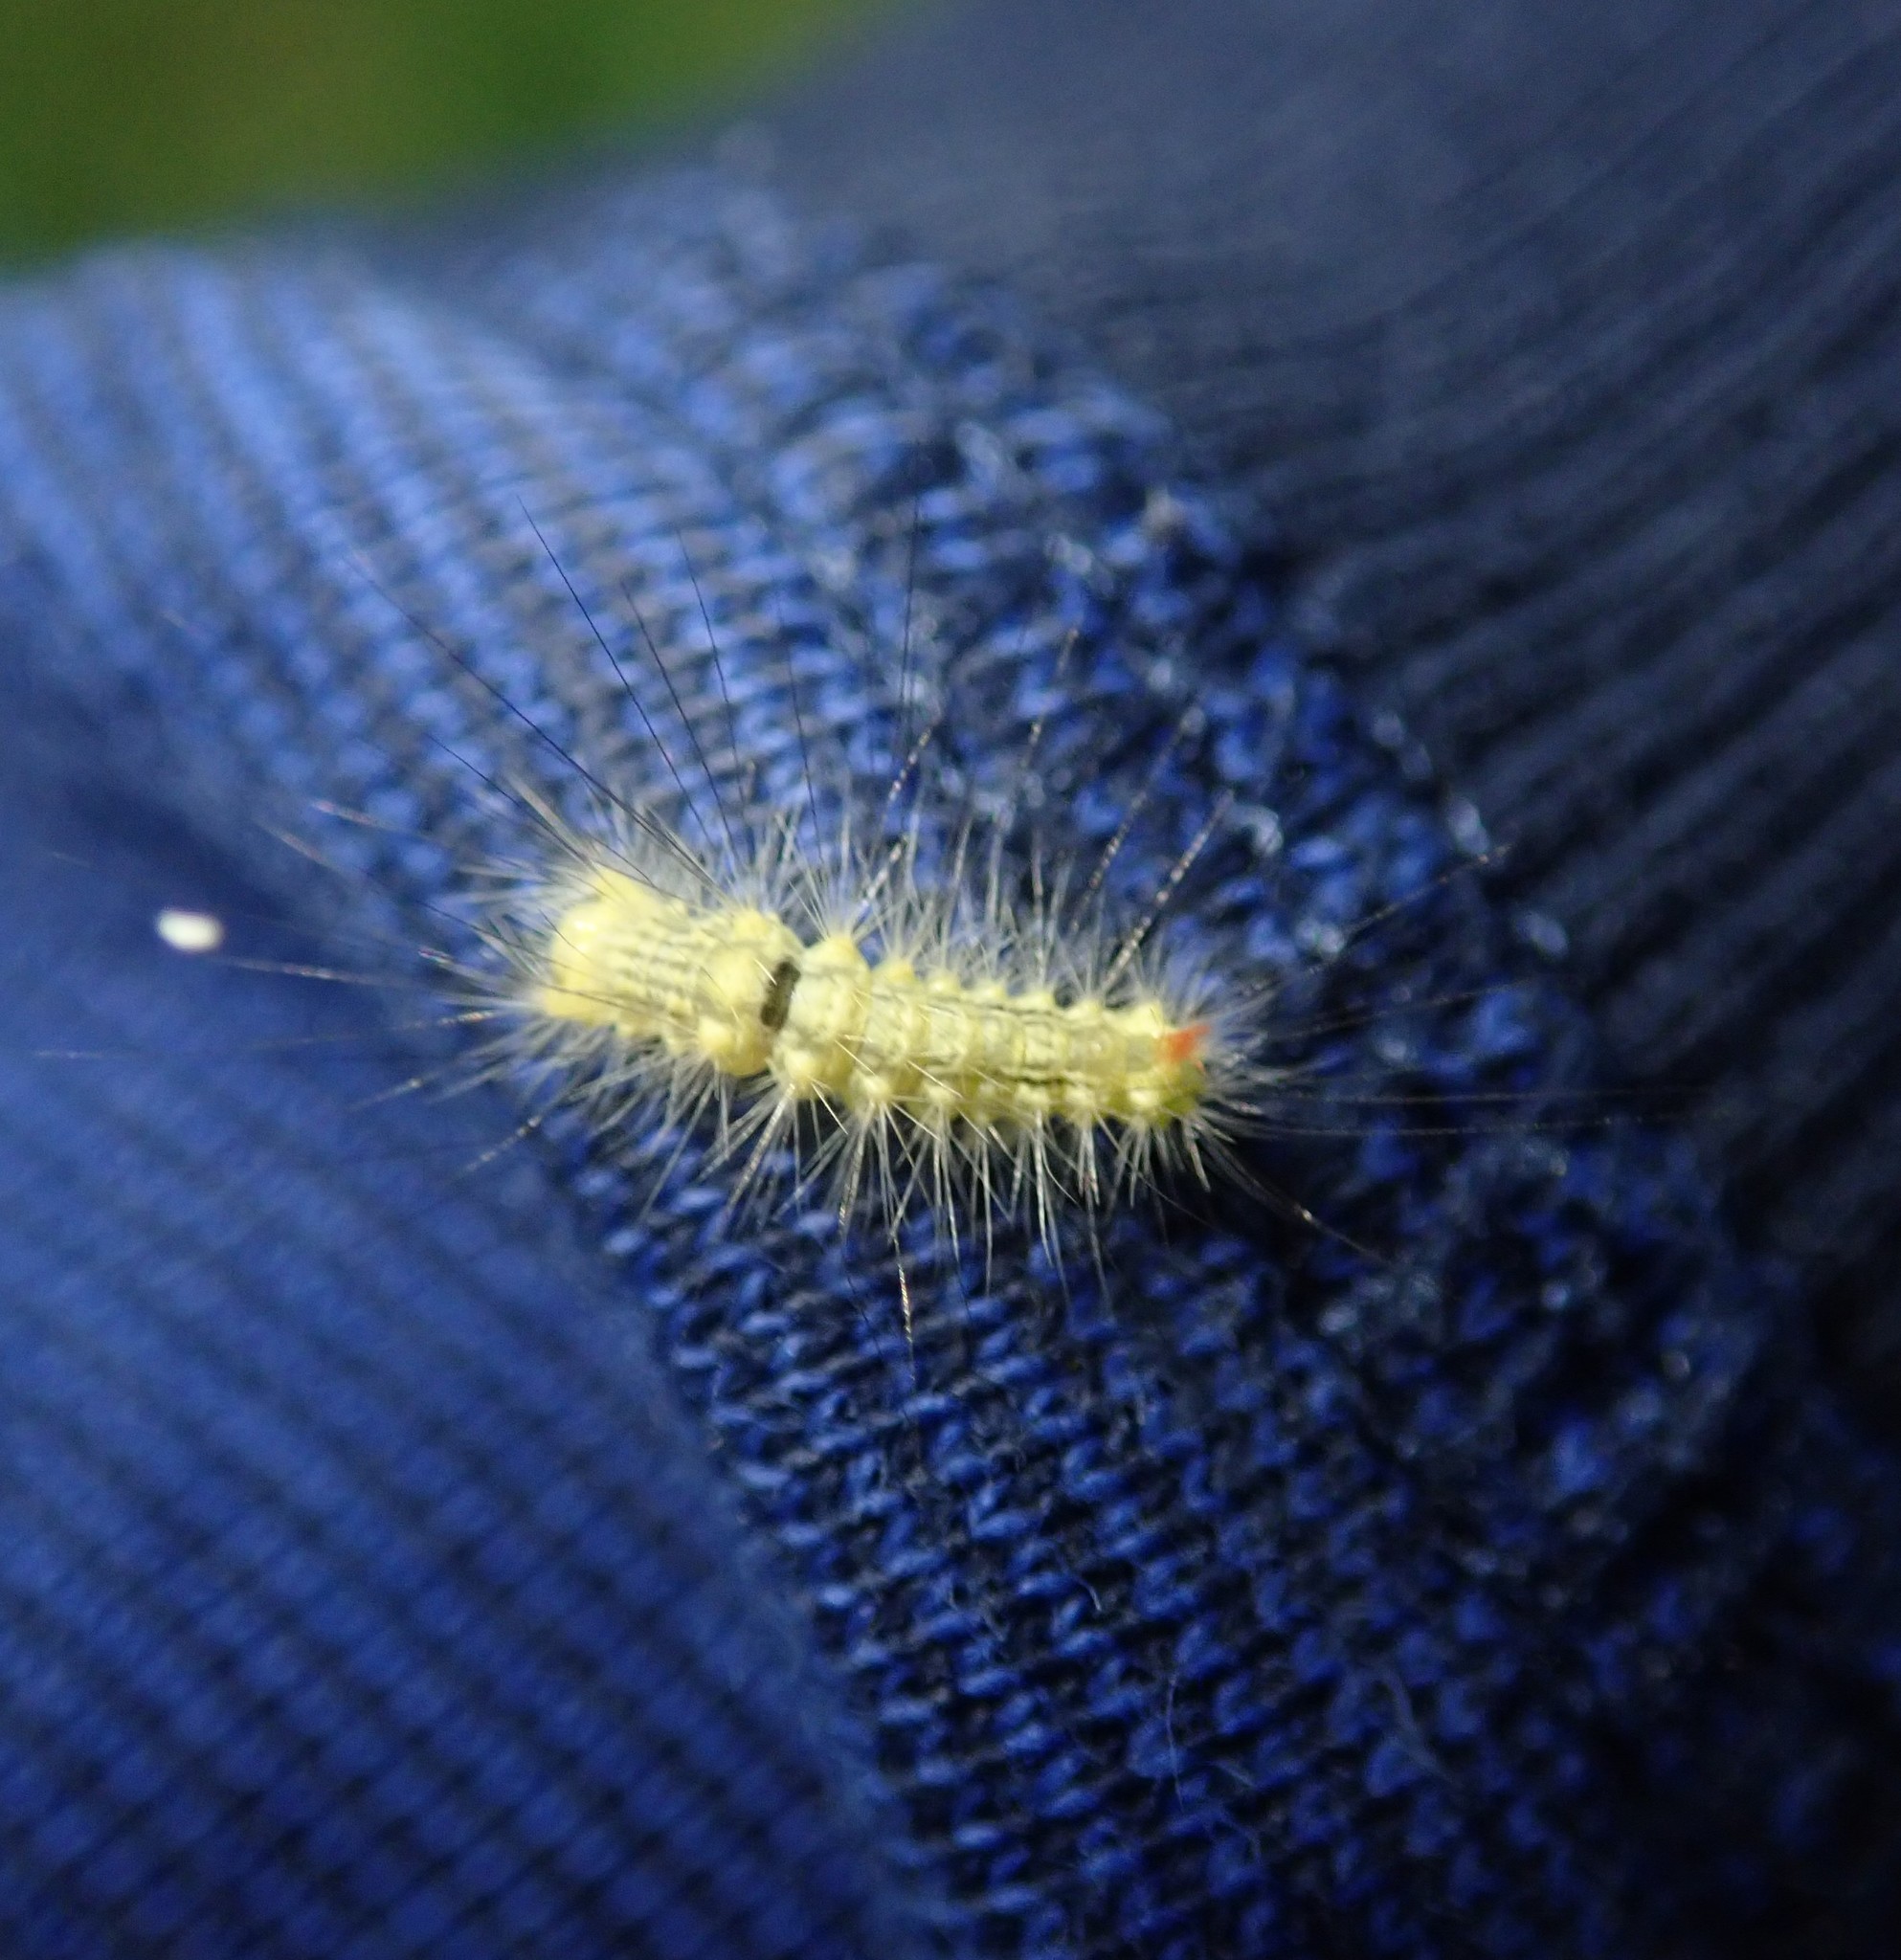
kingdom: Animalia
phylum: Arthropoda
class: Insecta
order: Lepidoptera
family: Erebidae
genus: Calliteara
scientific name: Calliteara pudibunda
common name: Pale tussock
